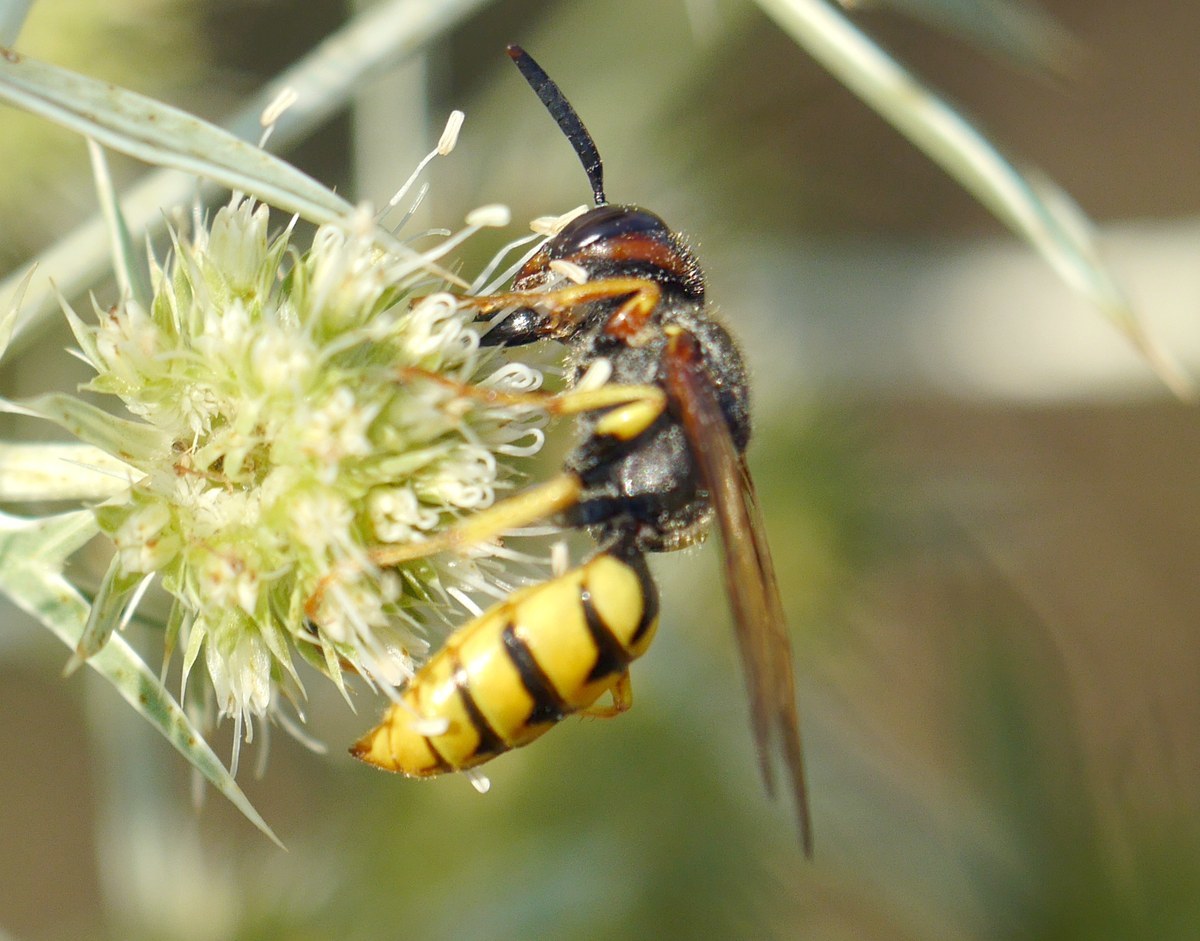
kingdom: Animalia
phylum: Arthropoda
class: Insecta
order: Hymenoptera
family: Crabronidae
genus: Philanthus
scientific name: Philanthus triangulum
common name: Bee wolf
